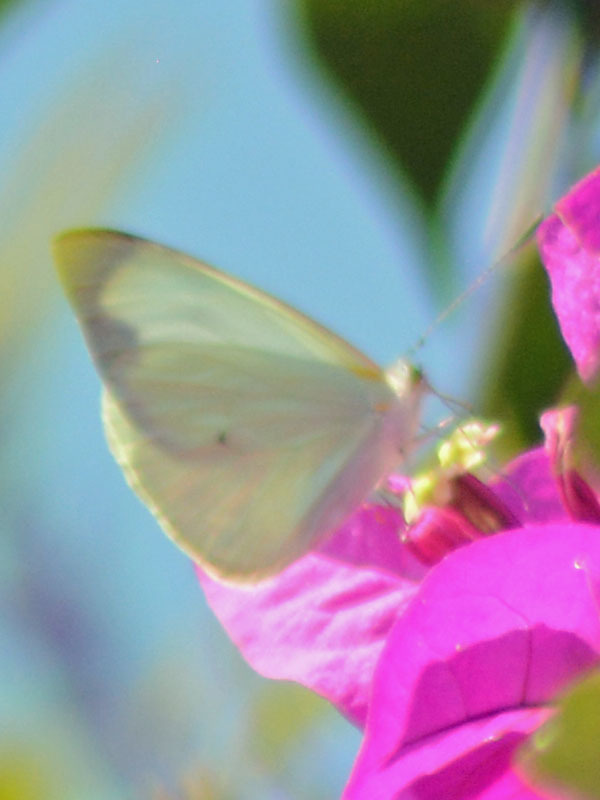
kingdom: Animalia
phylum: Arthropoda
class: Insecta
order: Lepidoptera
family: Pieridae
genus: Leptophobia
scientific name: Leptophobia aripa
